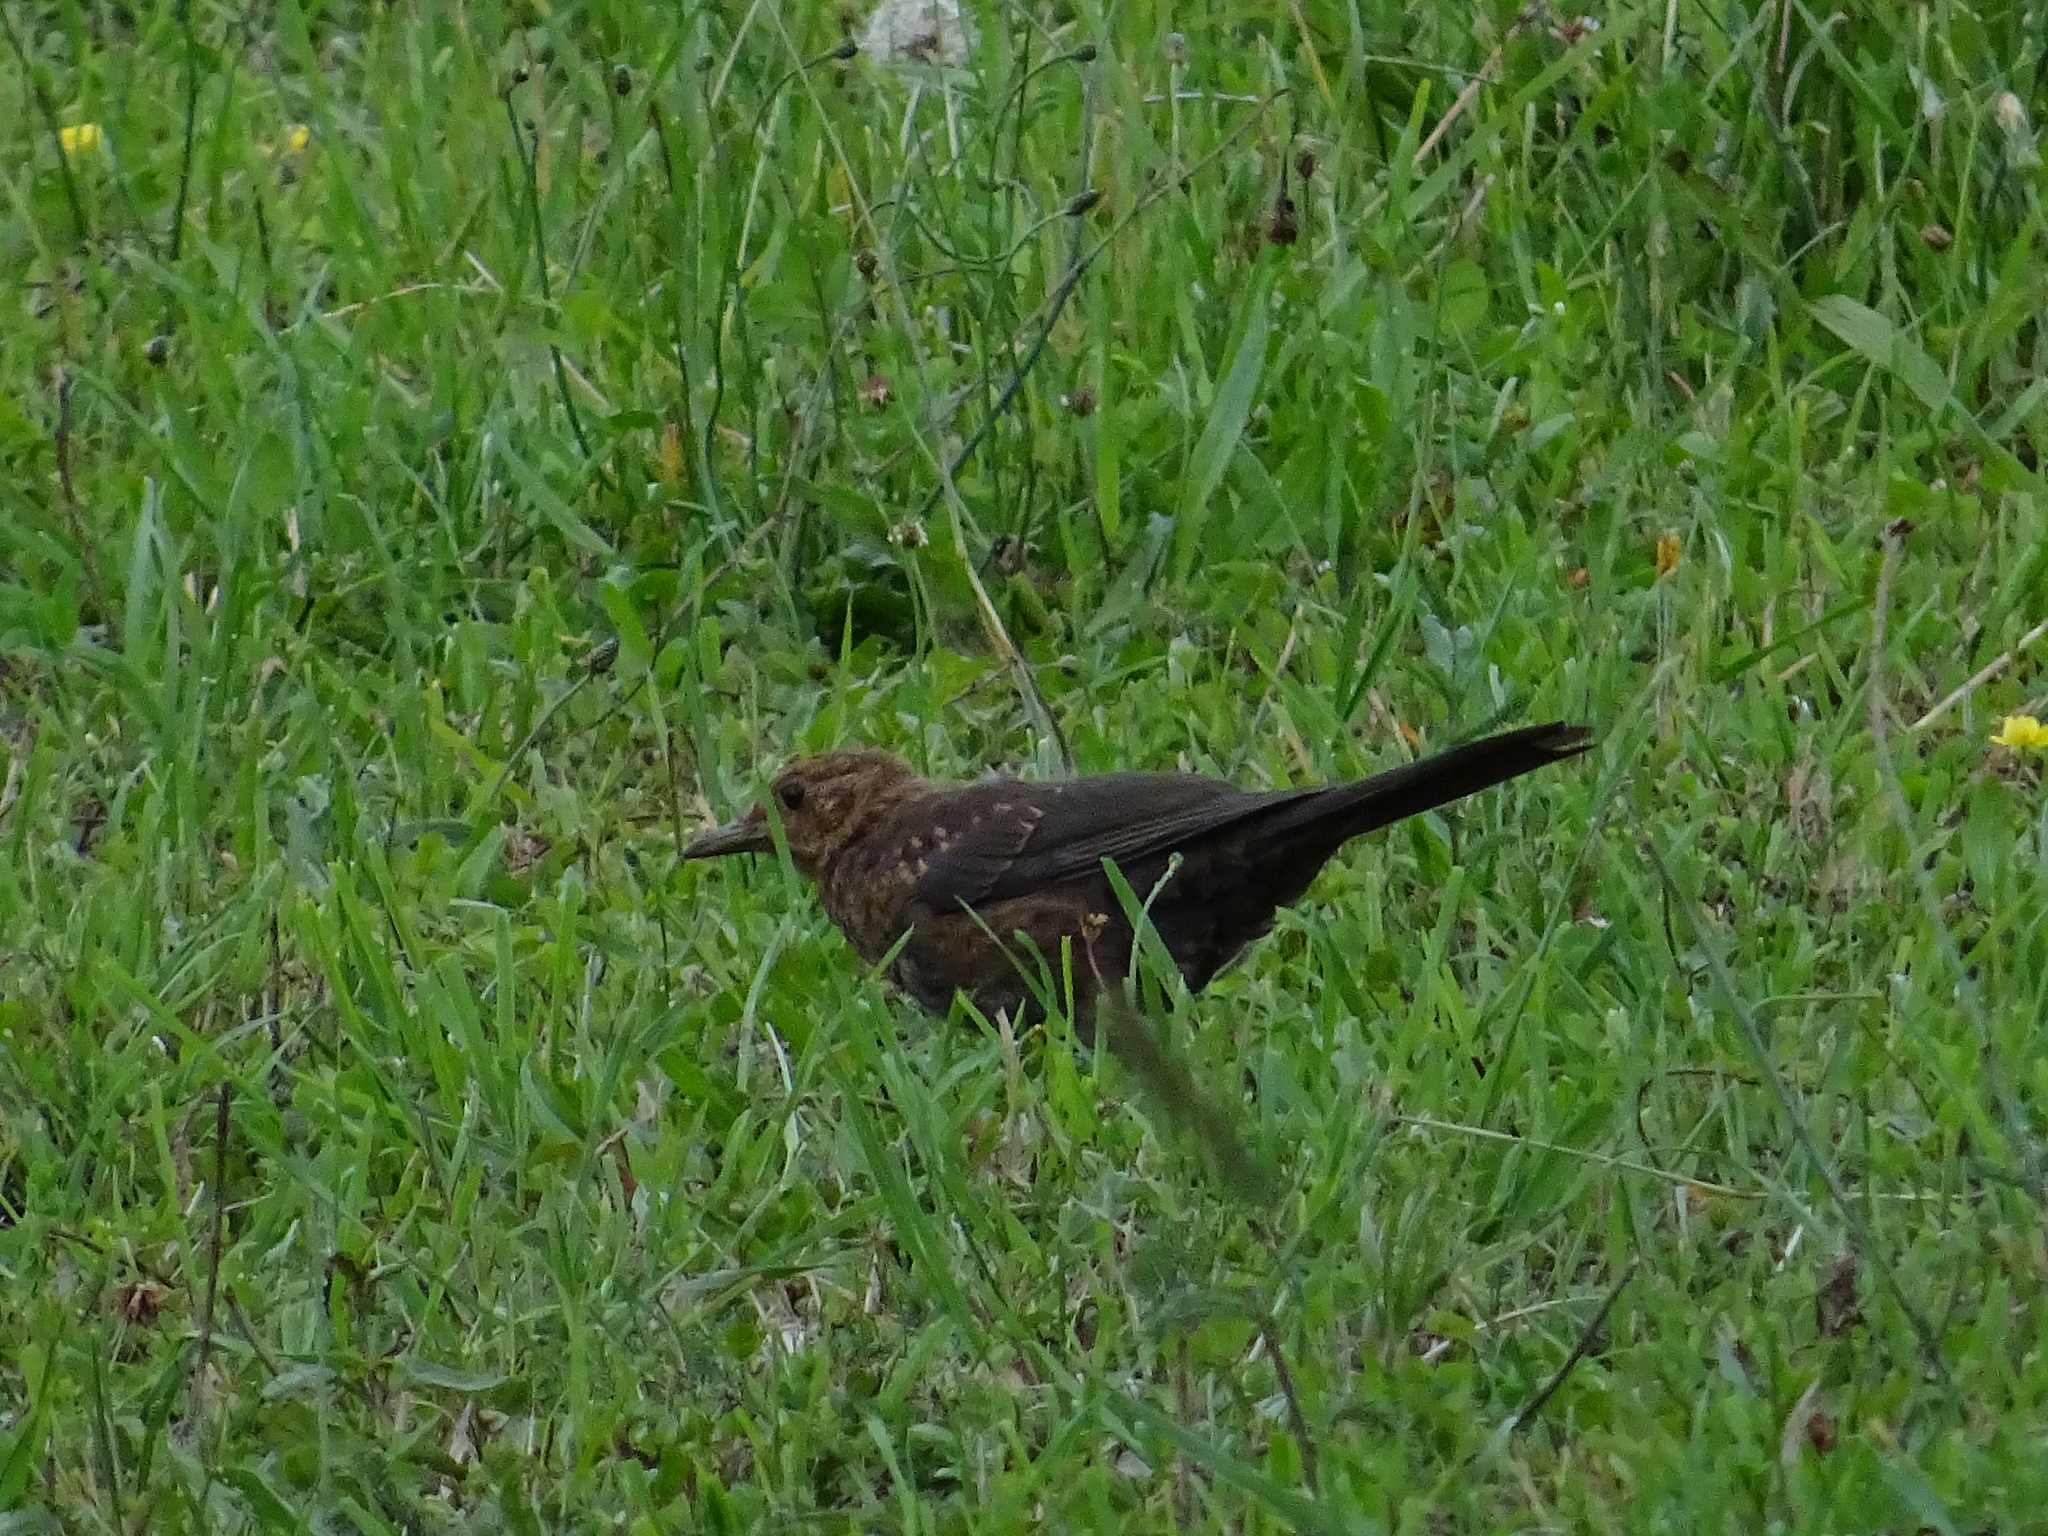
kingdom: Animalia
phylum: Chordata
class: Aves
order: Passeriformes
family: Turdidae
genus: Turdus
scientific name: Turdus merula
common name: Common blackbird
